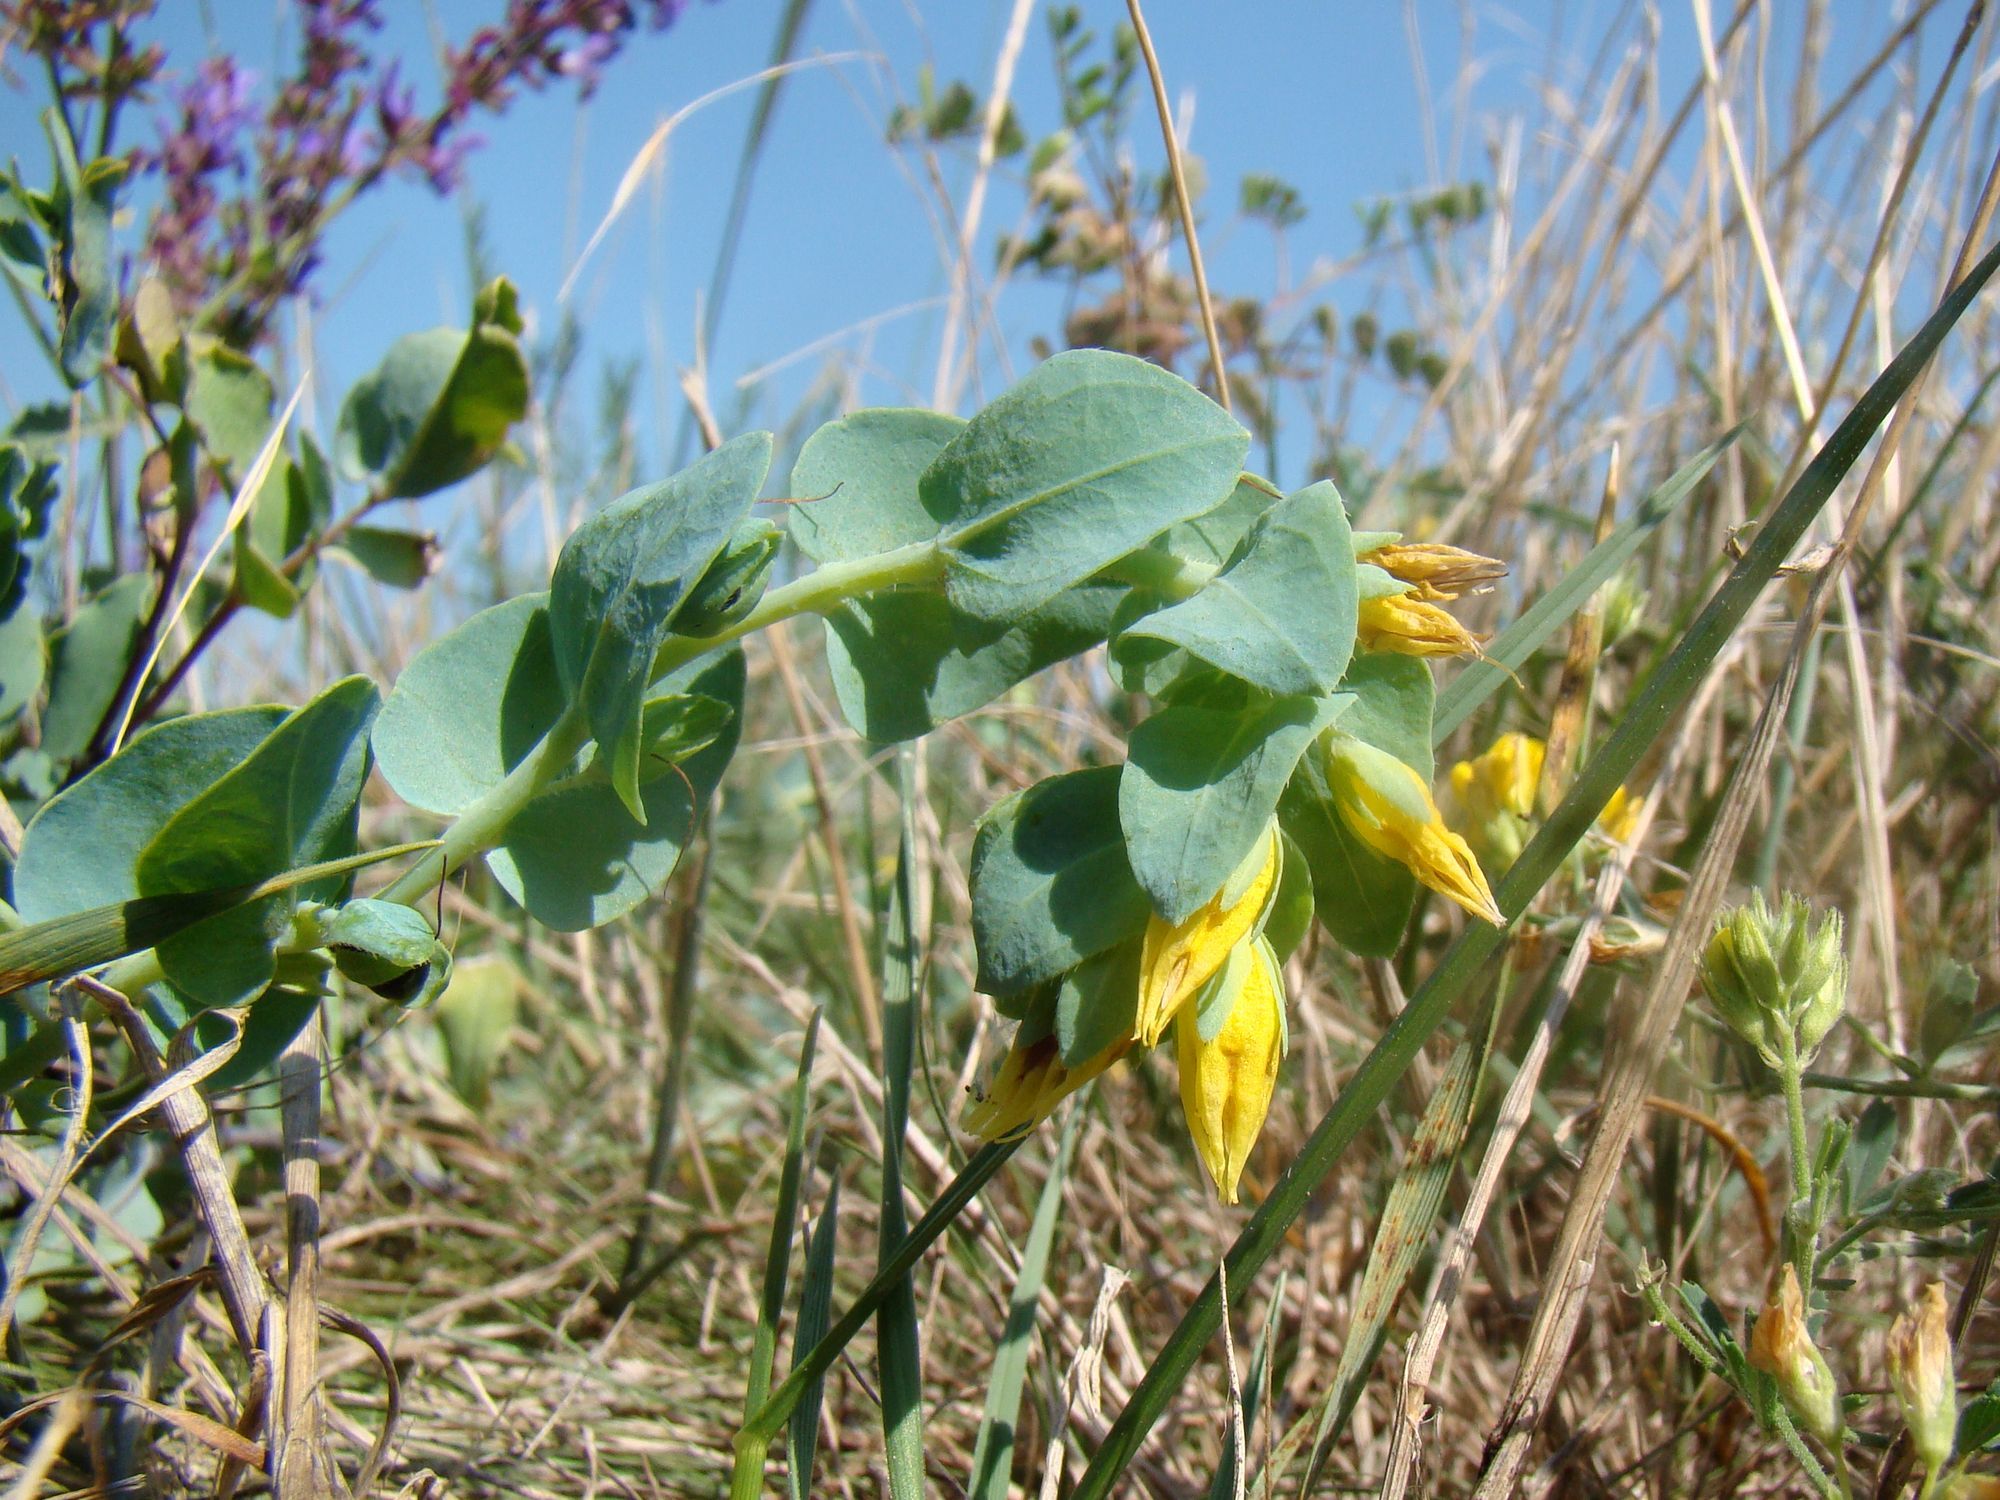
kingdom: Plantae
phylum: Tracheophyta
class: Magnoliopsida
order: Boraginales
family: Boraginaceae
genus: Cerinthe
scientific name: Cerinthe minor
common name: Lesser honeywort
